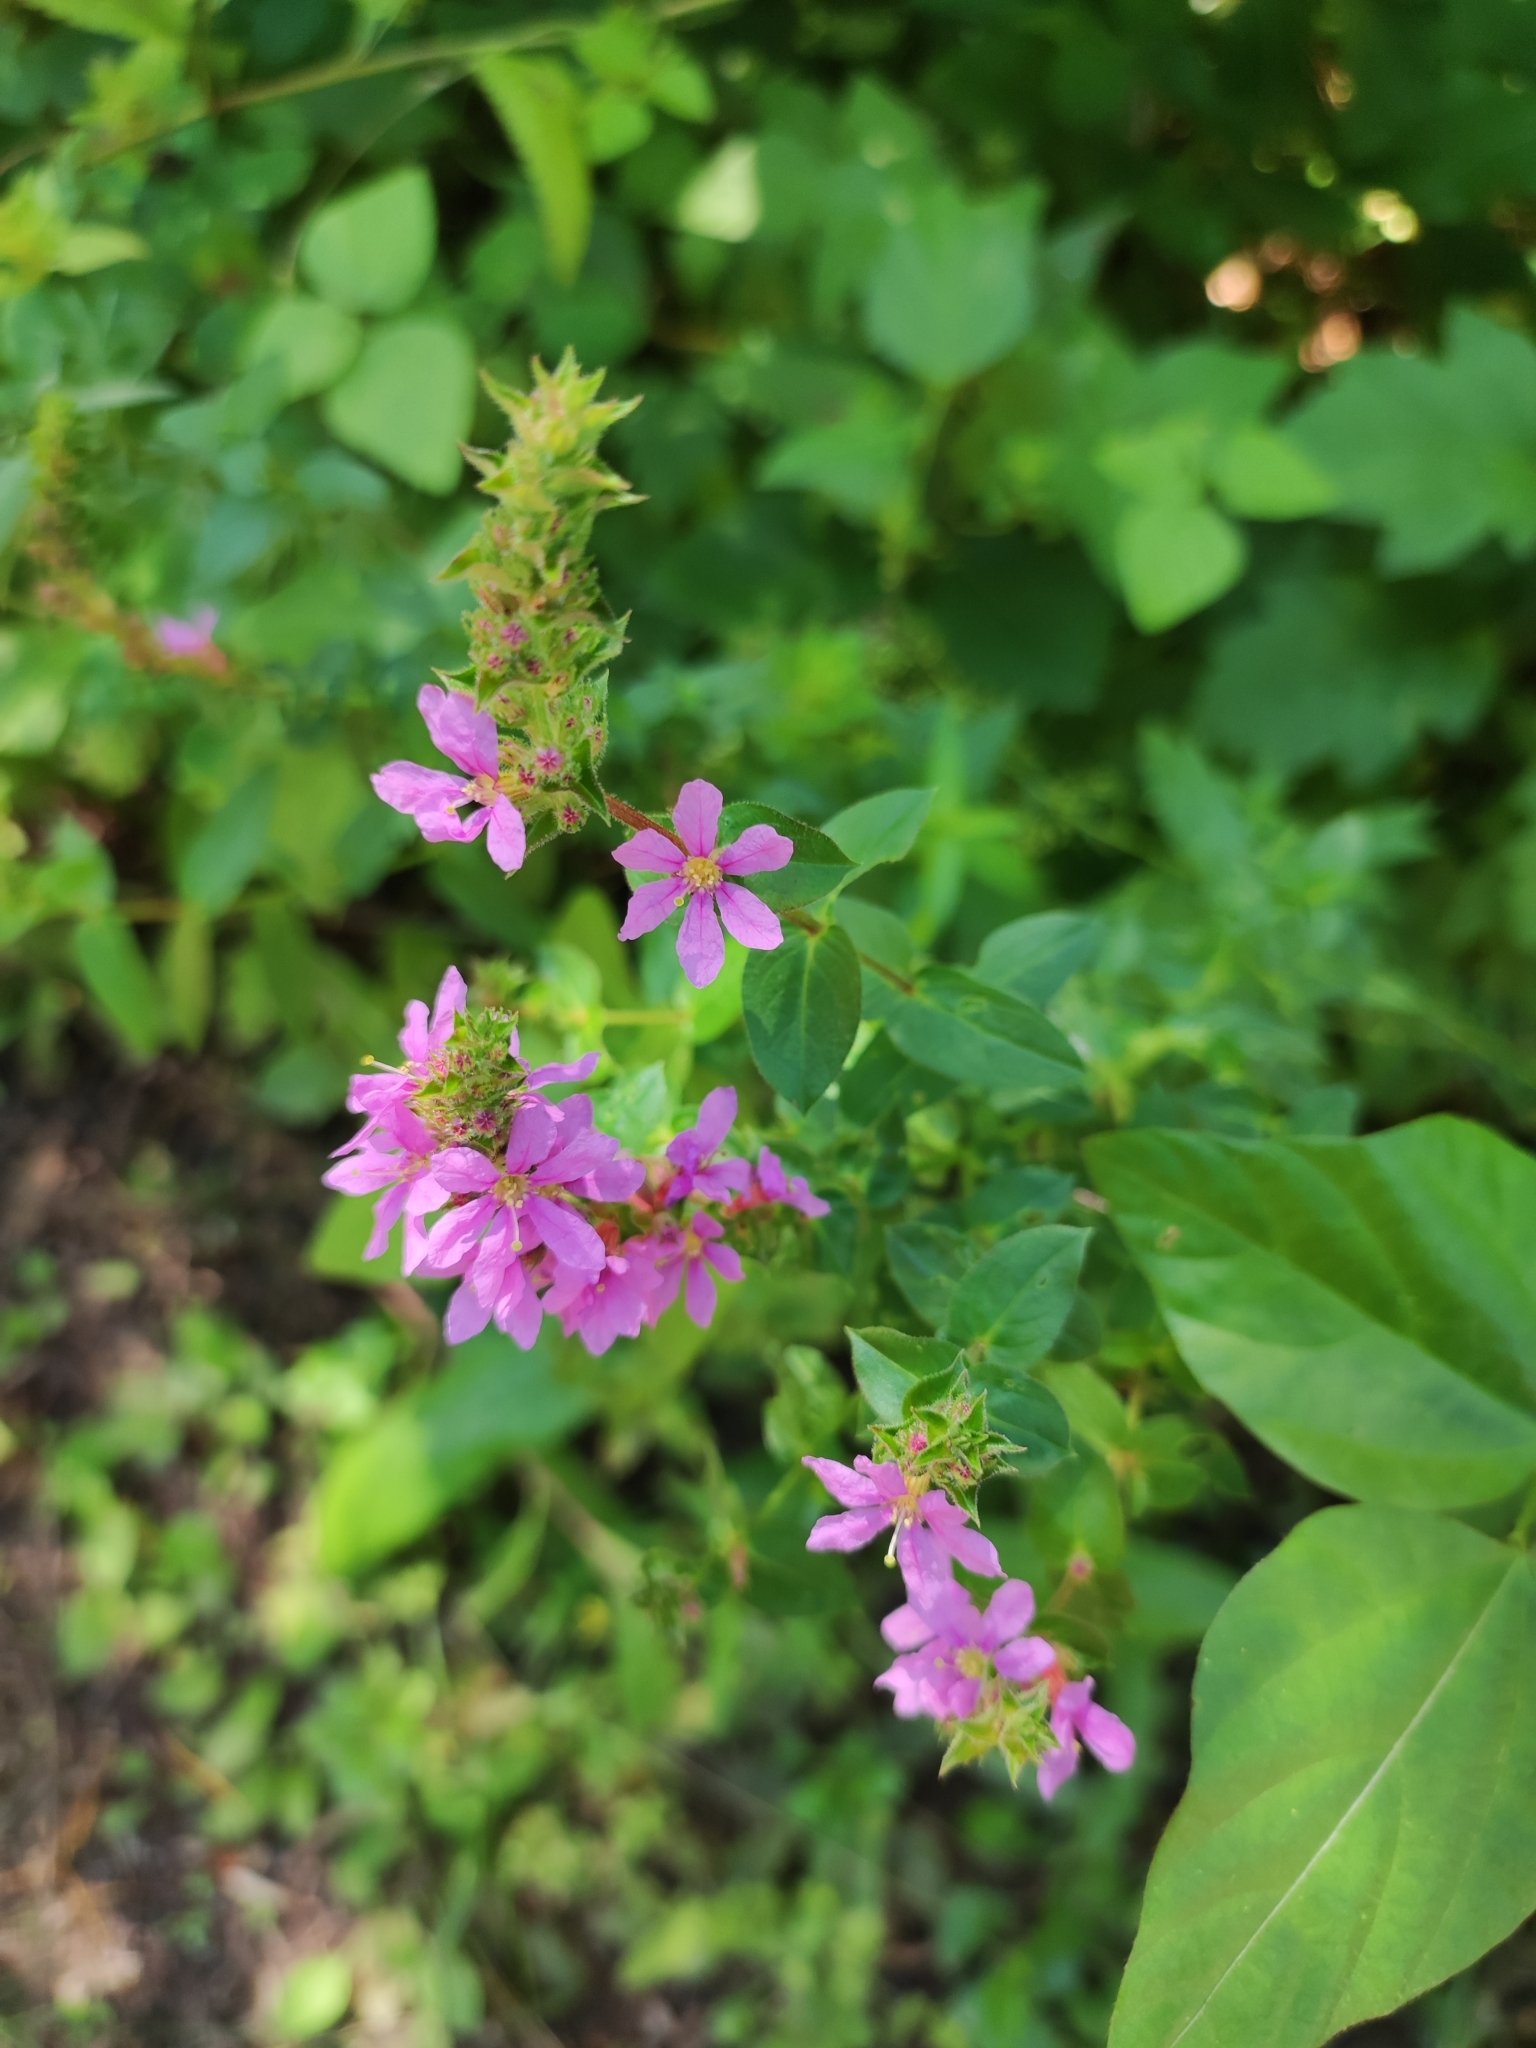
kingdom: Plantae
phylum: Tracheophyta
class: Magnoliopsida
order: Myrtales
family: Lythraceae
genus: Lythrum
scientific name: Lythrum salicaria
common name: Purple loosestrife
